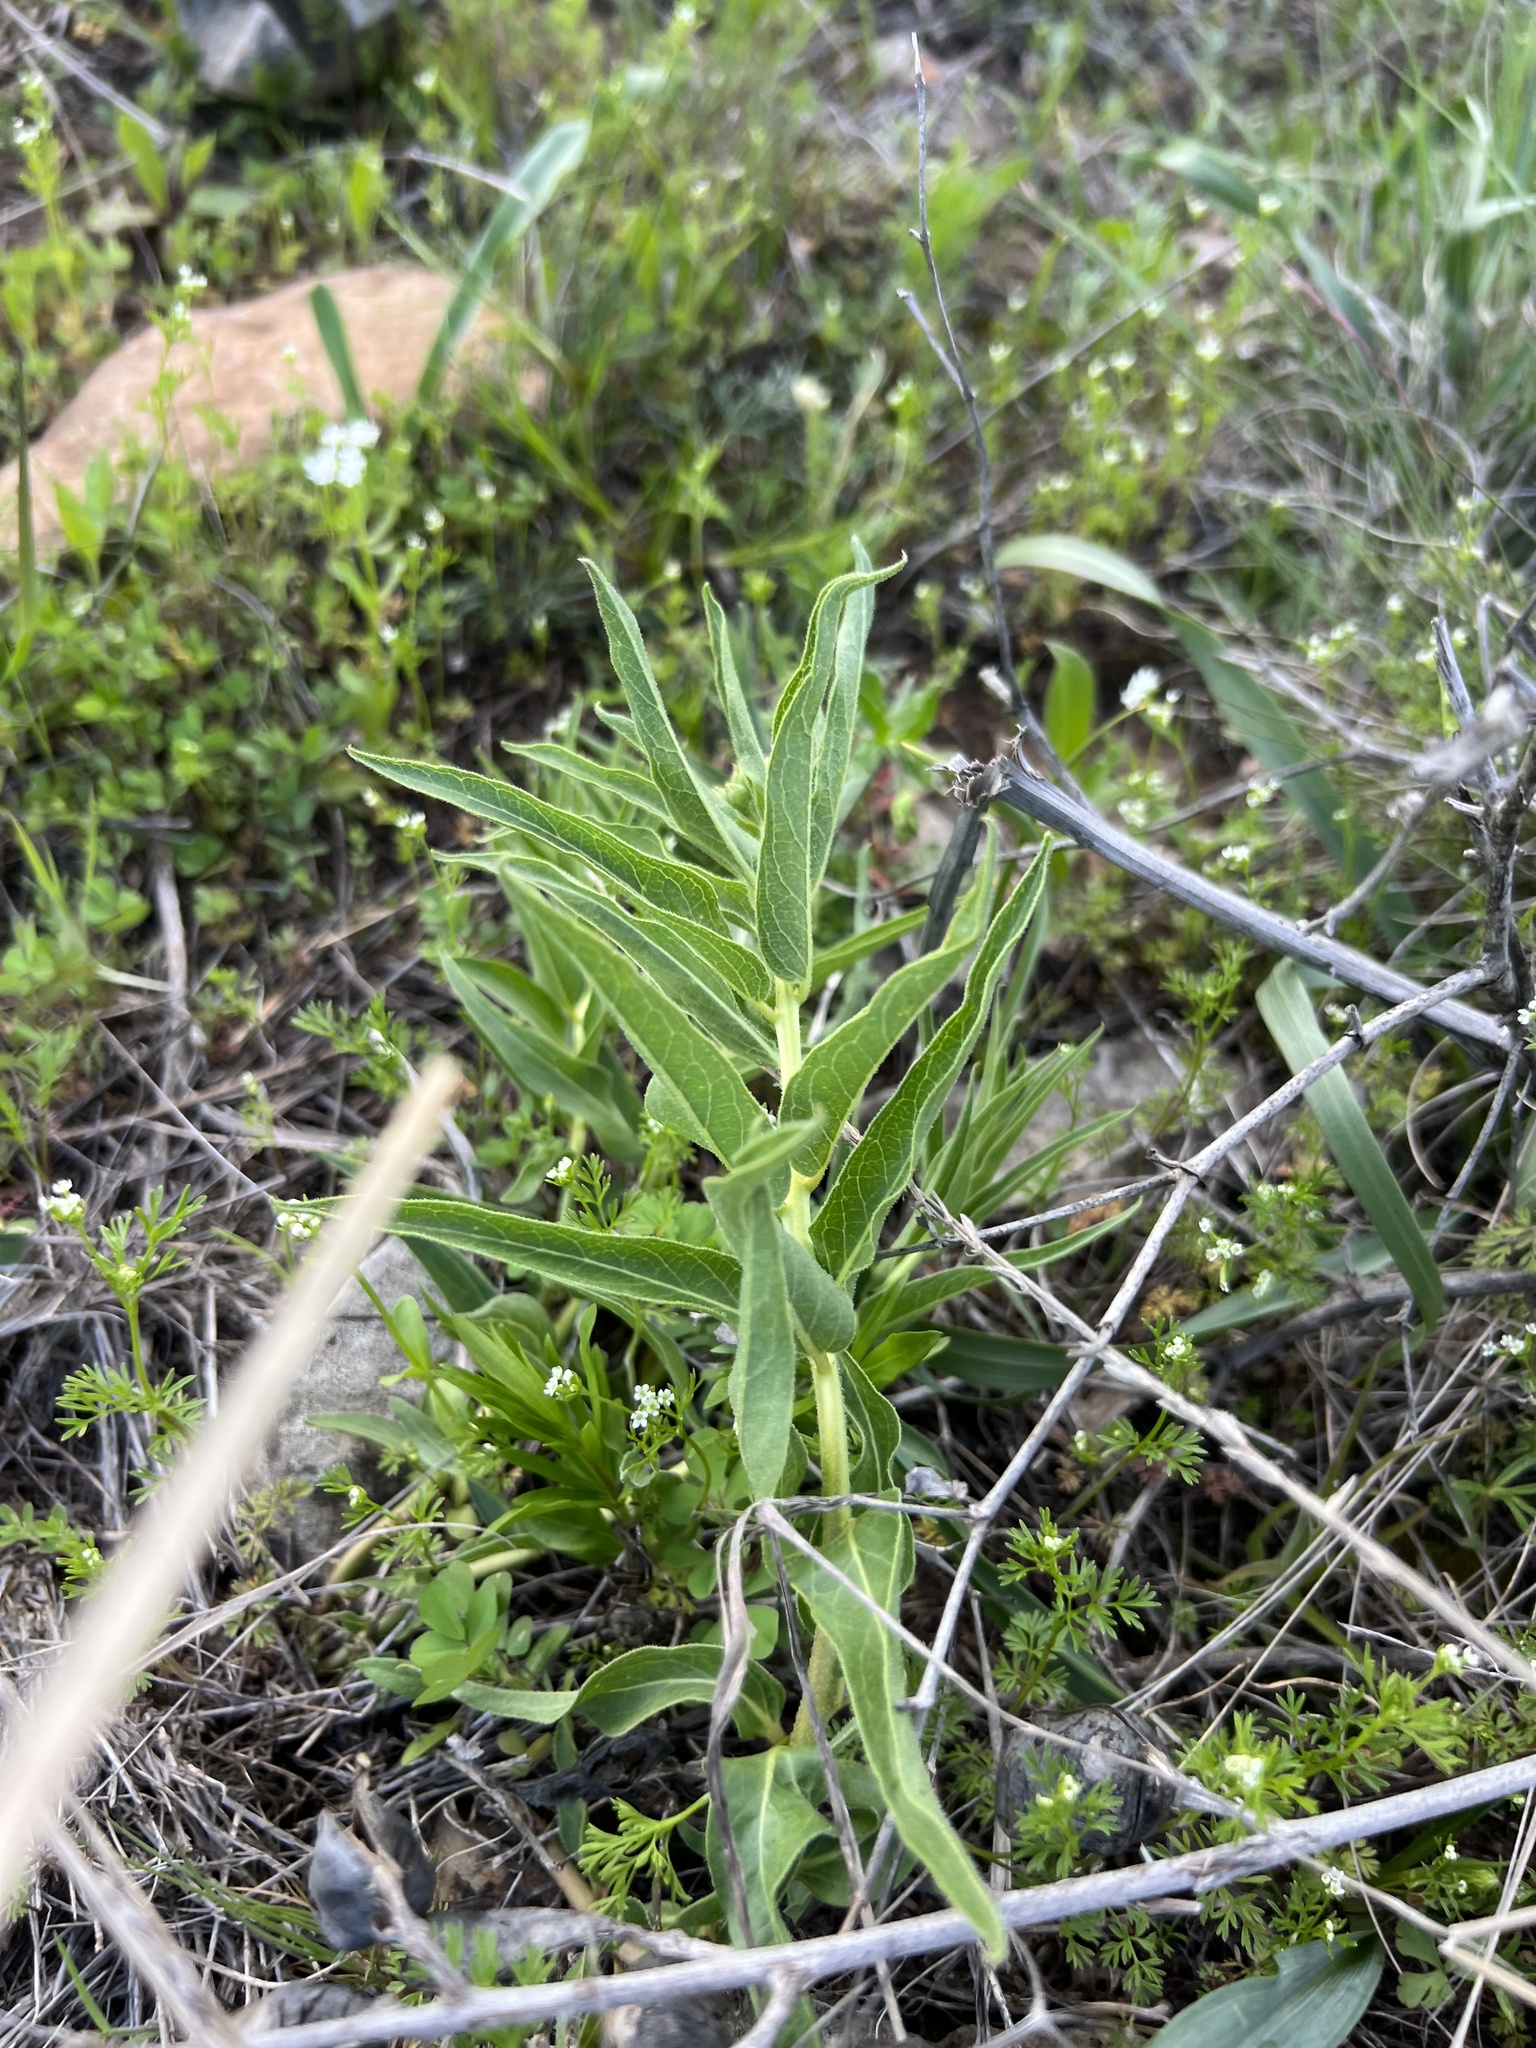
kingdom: Plantae
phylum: Tracheophyta
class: Magnoliopsida
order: Gentianales
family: Apocynaceae
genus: Asclepias
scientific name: Asclepias asperula
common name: Antelope horns
